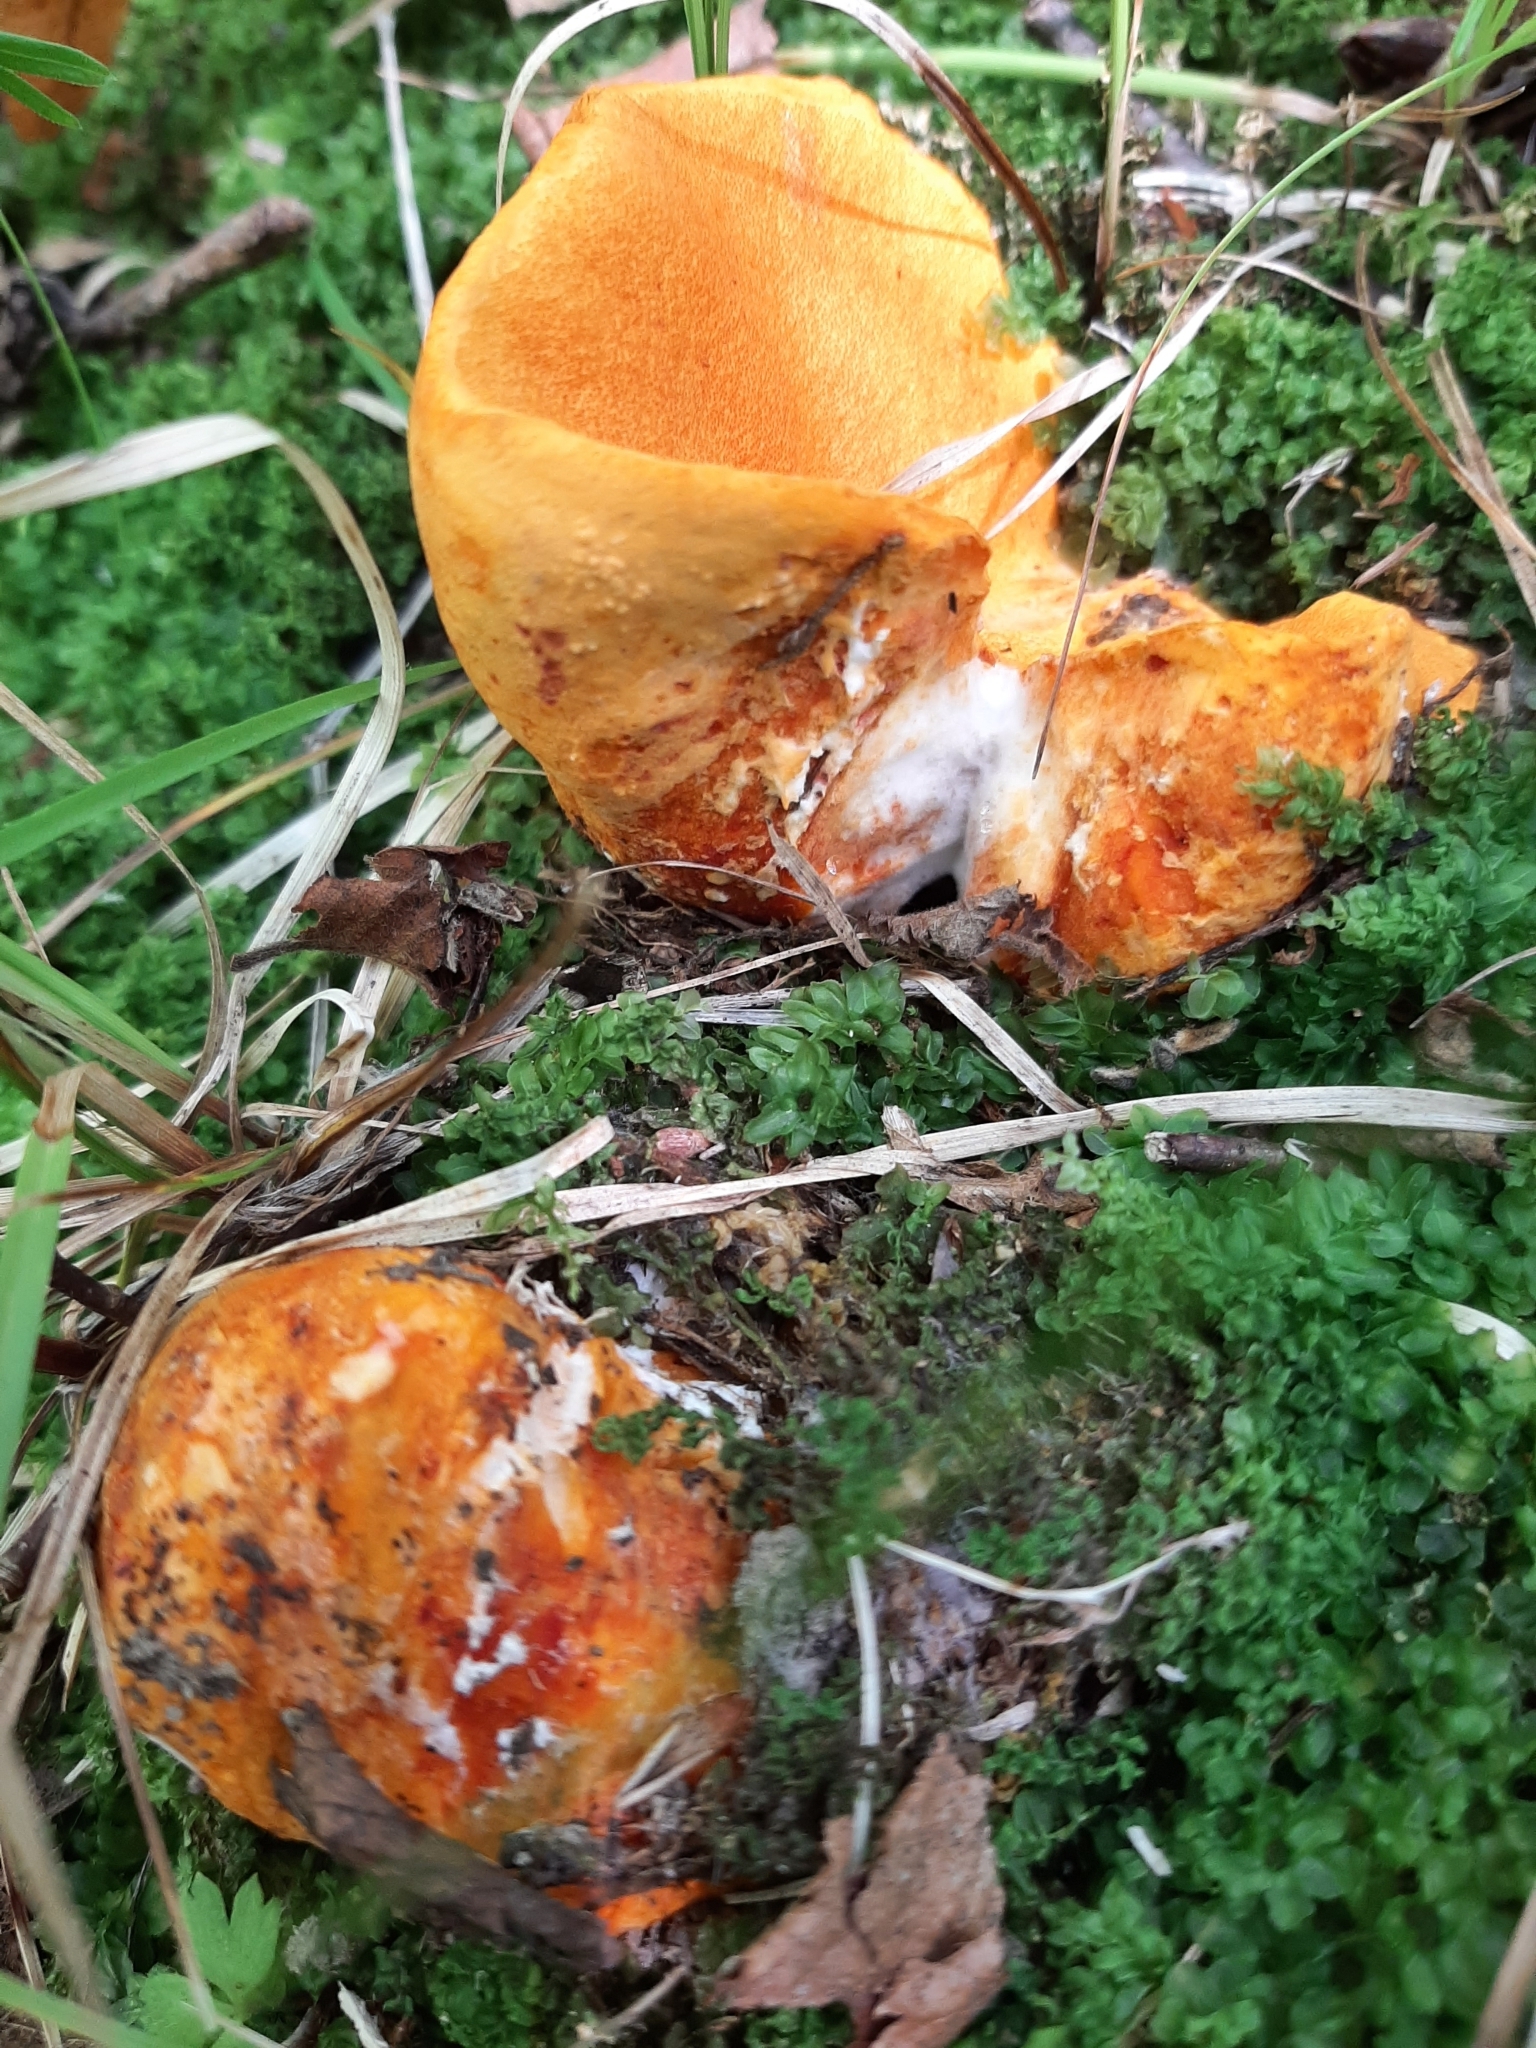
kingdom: Fungi
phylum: Ascomycota
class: Sordariomycetes
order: Hypocreales
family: Hypocreaceae
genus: Hypomyces
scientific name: Hypomyces lactifluorum
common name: Lobster mushroom
